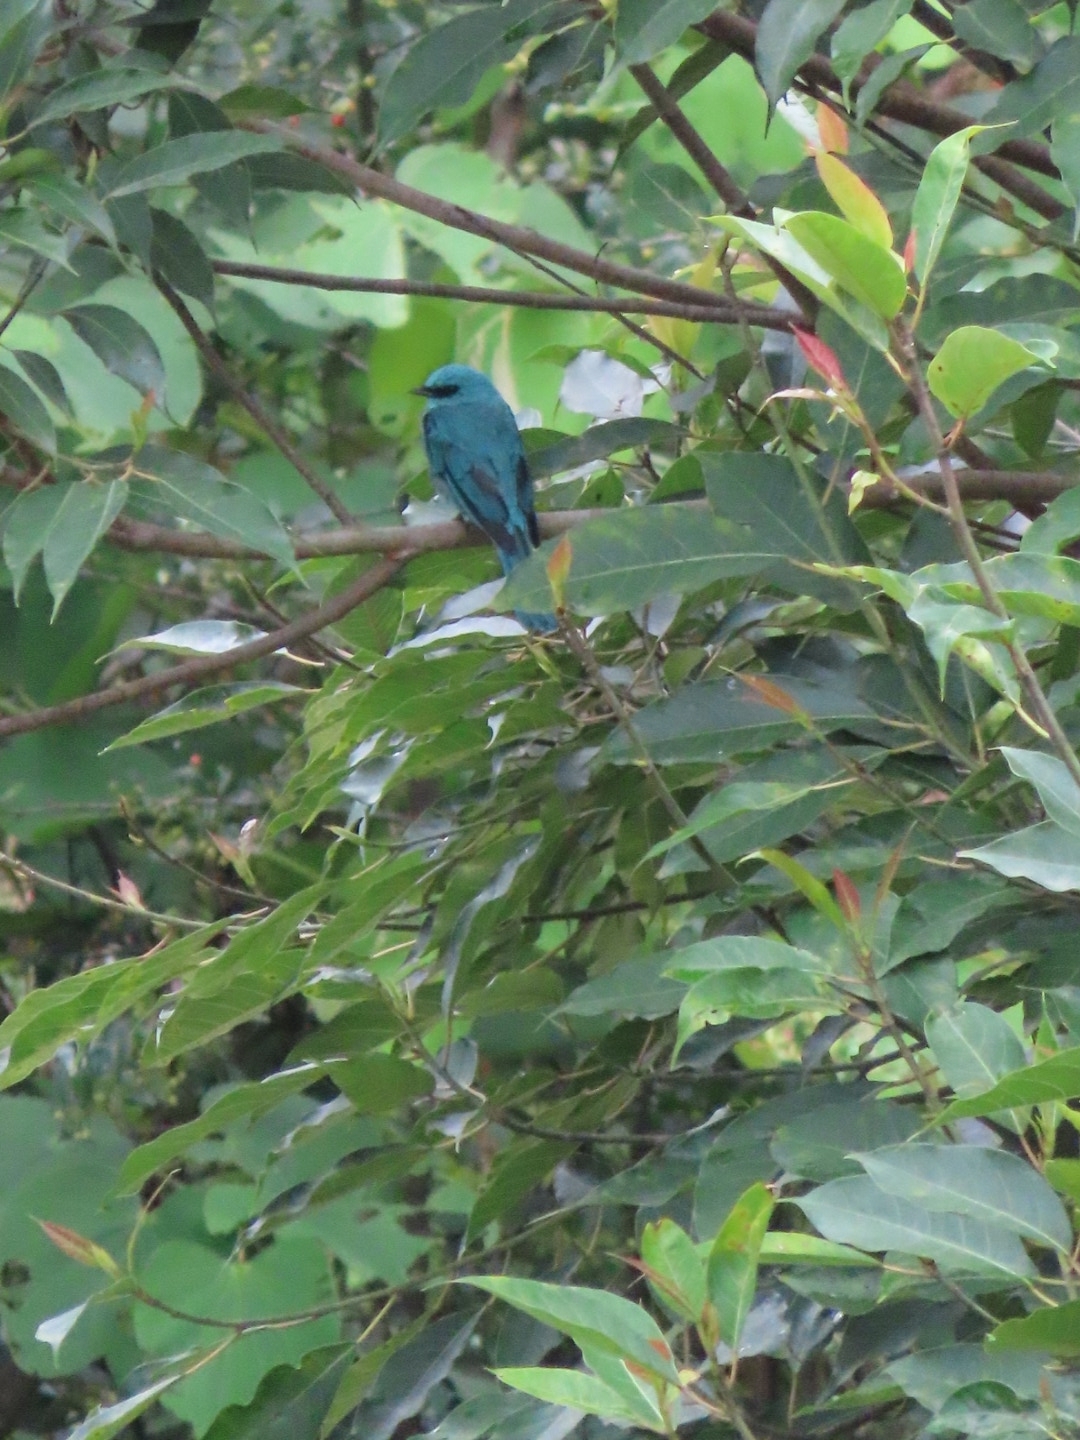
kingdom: Animalia
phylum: Chordata
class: Aves
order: Passeriformes
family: Muscicapidae
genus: Eumyias
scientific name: Eumyias thalassinus
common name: Verditer flycatcher
